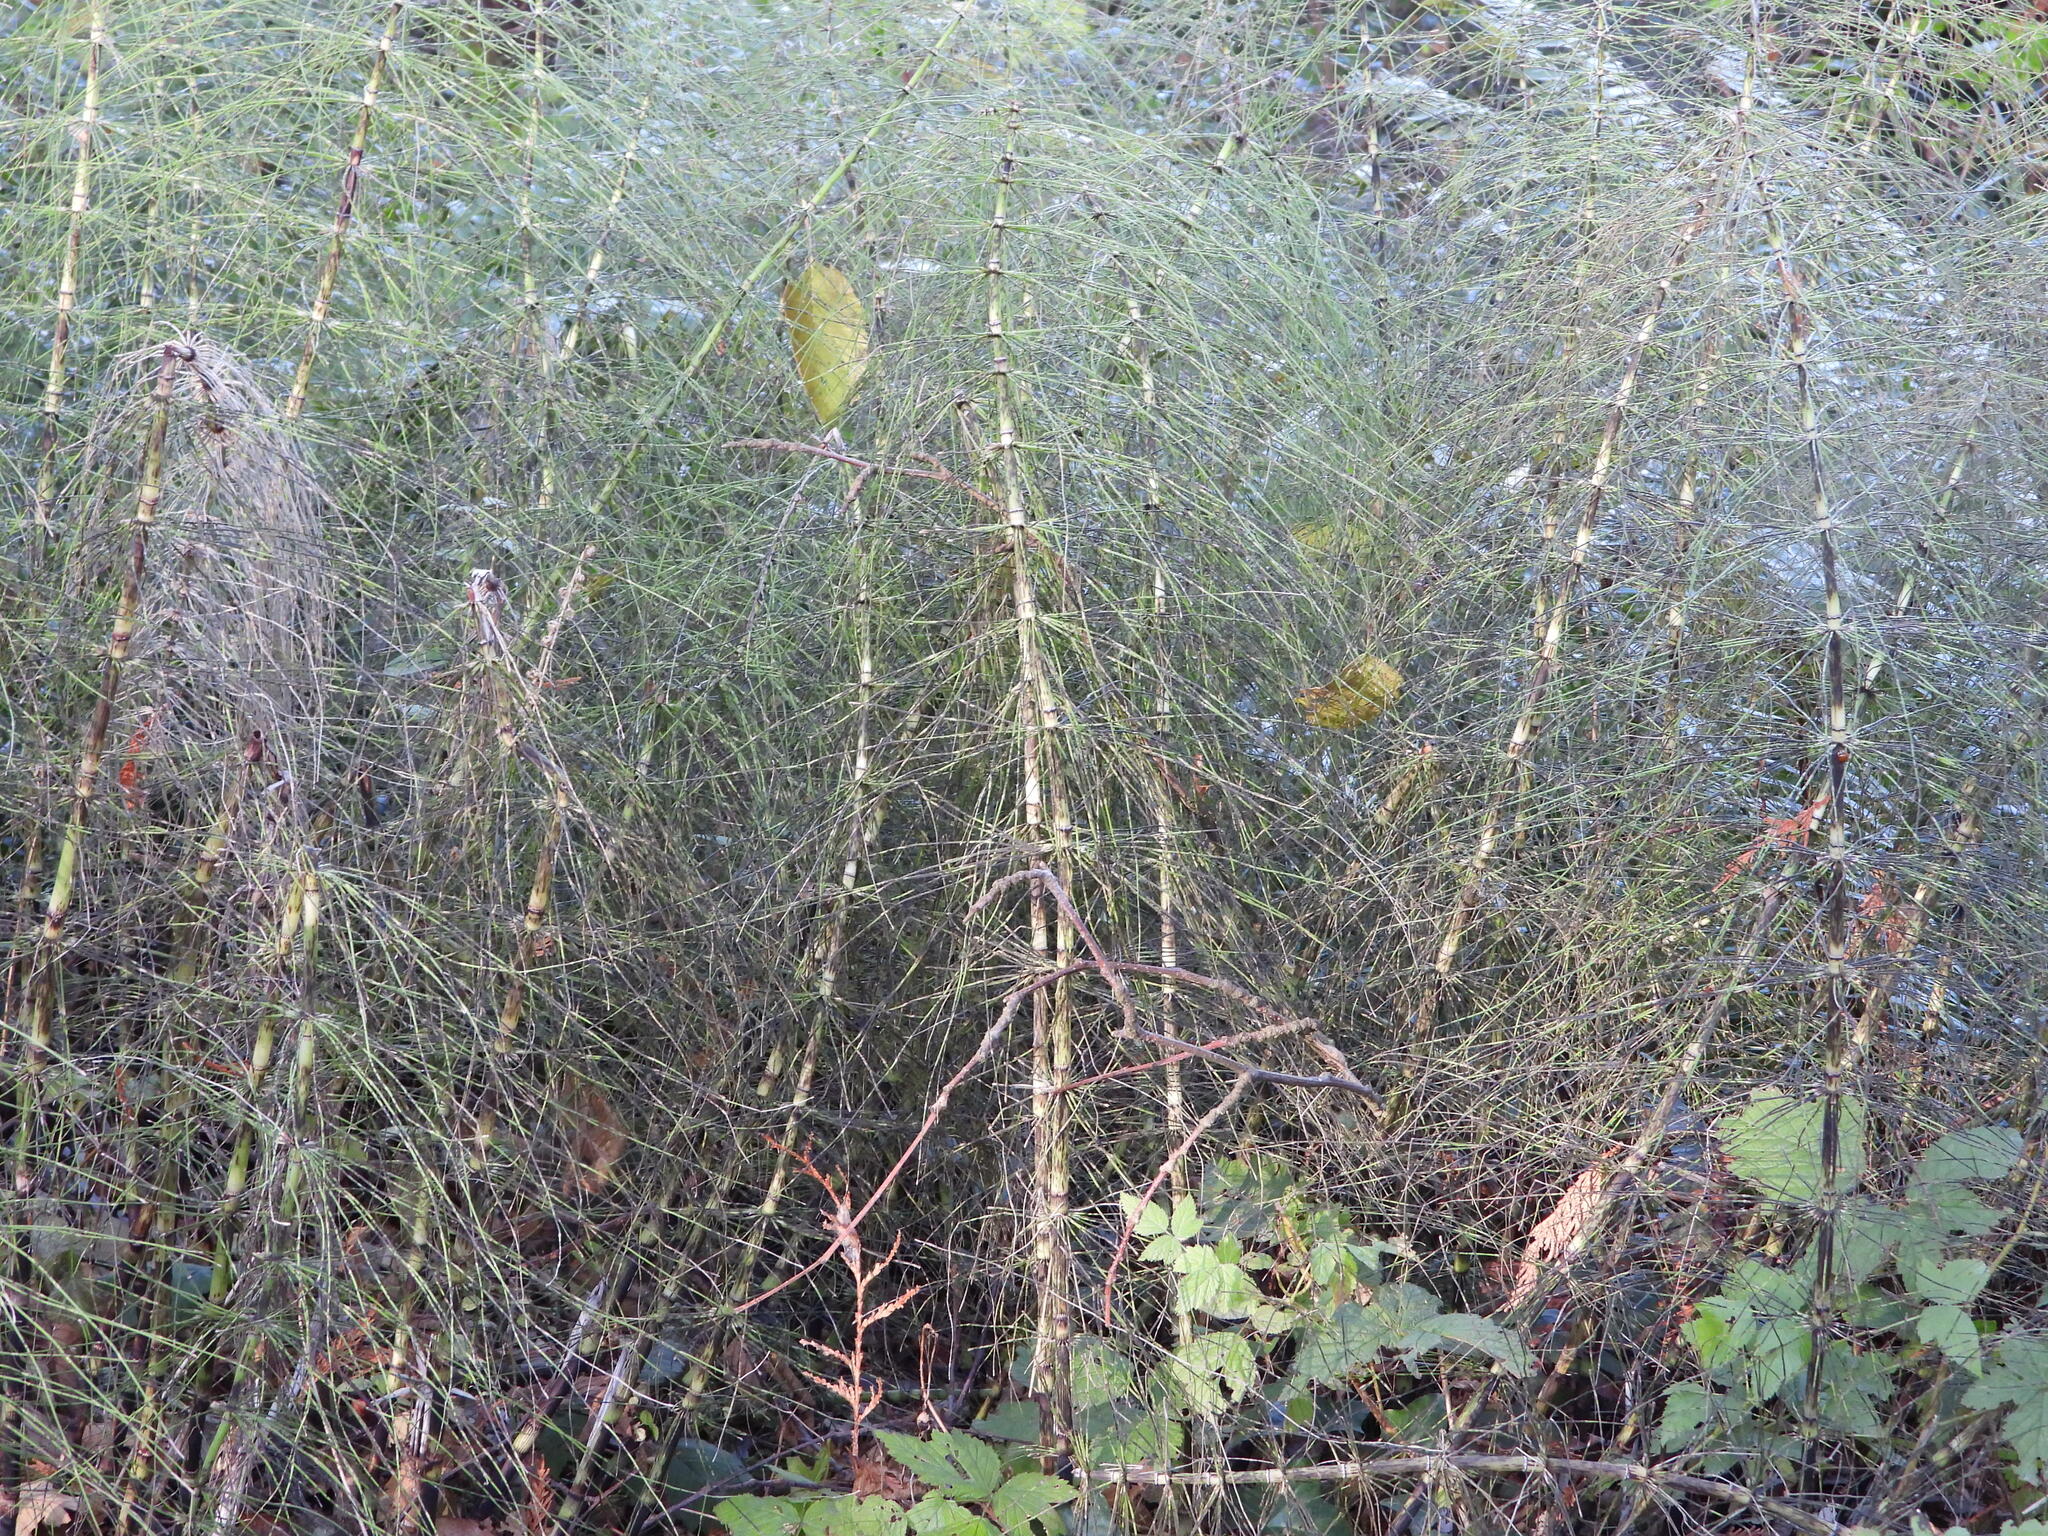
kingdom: Plantae
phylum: Tracheophyta
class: Polypodiopsida
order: Equisetales
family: Equisetaceae
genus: Equisetum
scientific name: Equisetum telmateia
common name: Great horsetail
